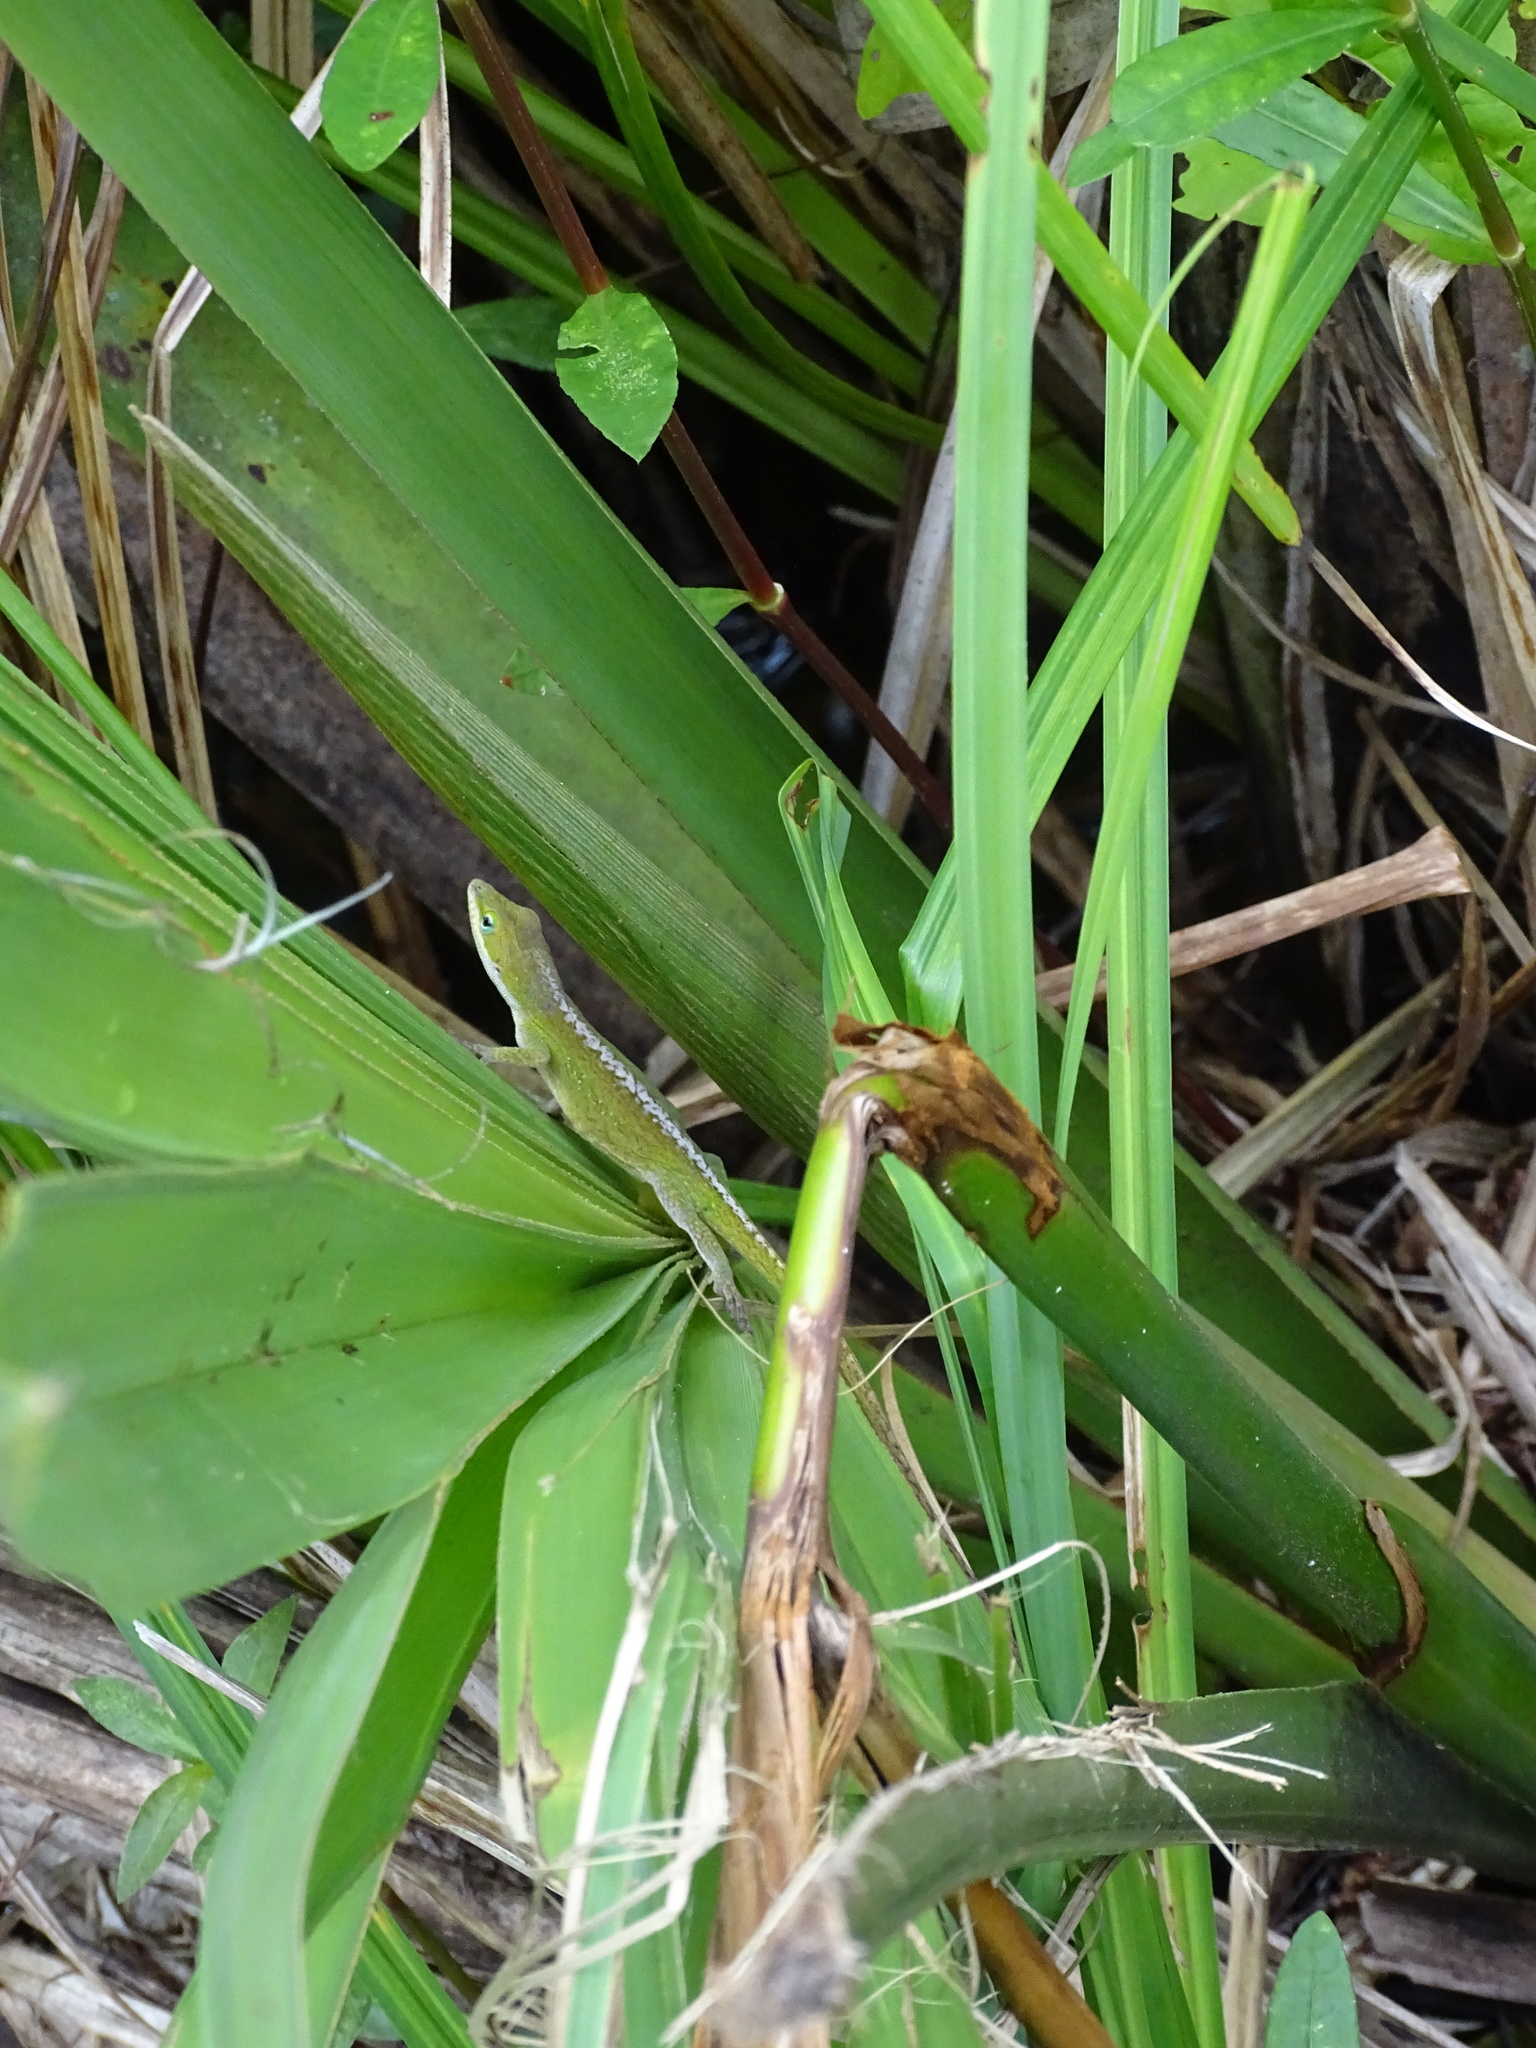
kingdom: Animalia
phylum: Chordata
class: Squamata
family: Dactyloidae
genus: Anolis
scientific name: Anolis carolinensis
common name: Green anole
